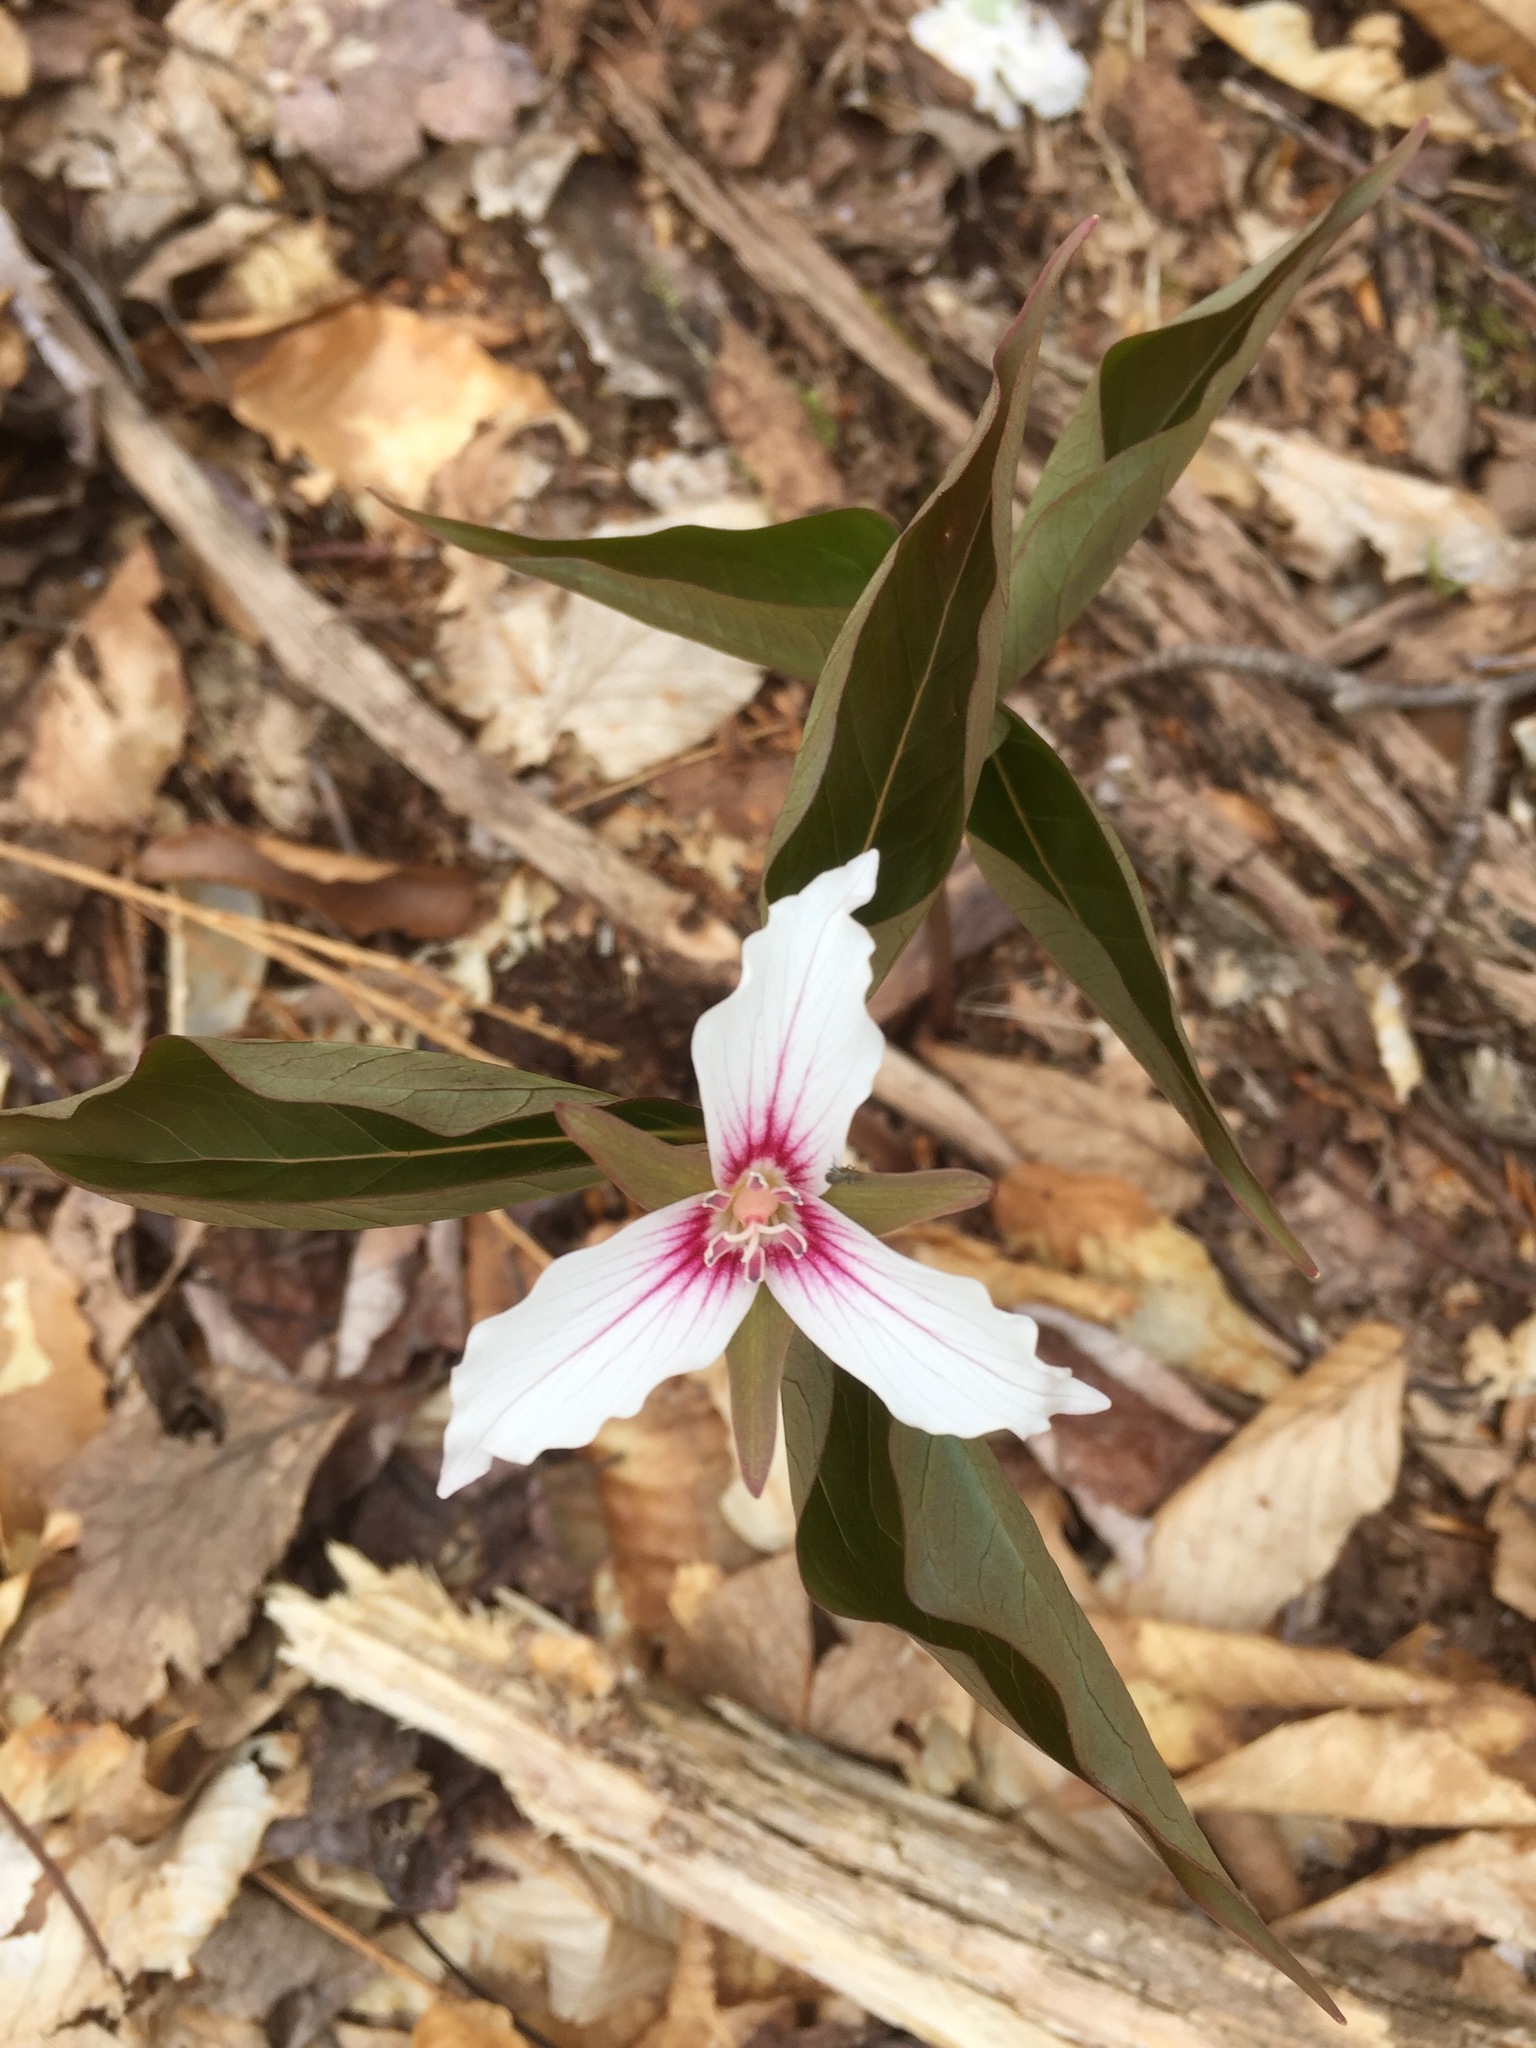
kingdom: Plantae
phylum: Tracheophyta
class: Liliopsida
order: Liliales
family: Melanthiaceae
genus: Trillium
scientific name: Trillium undulatum
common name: Paint trillium
